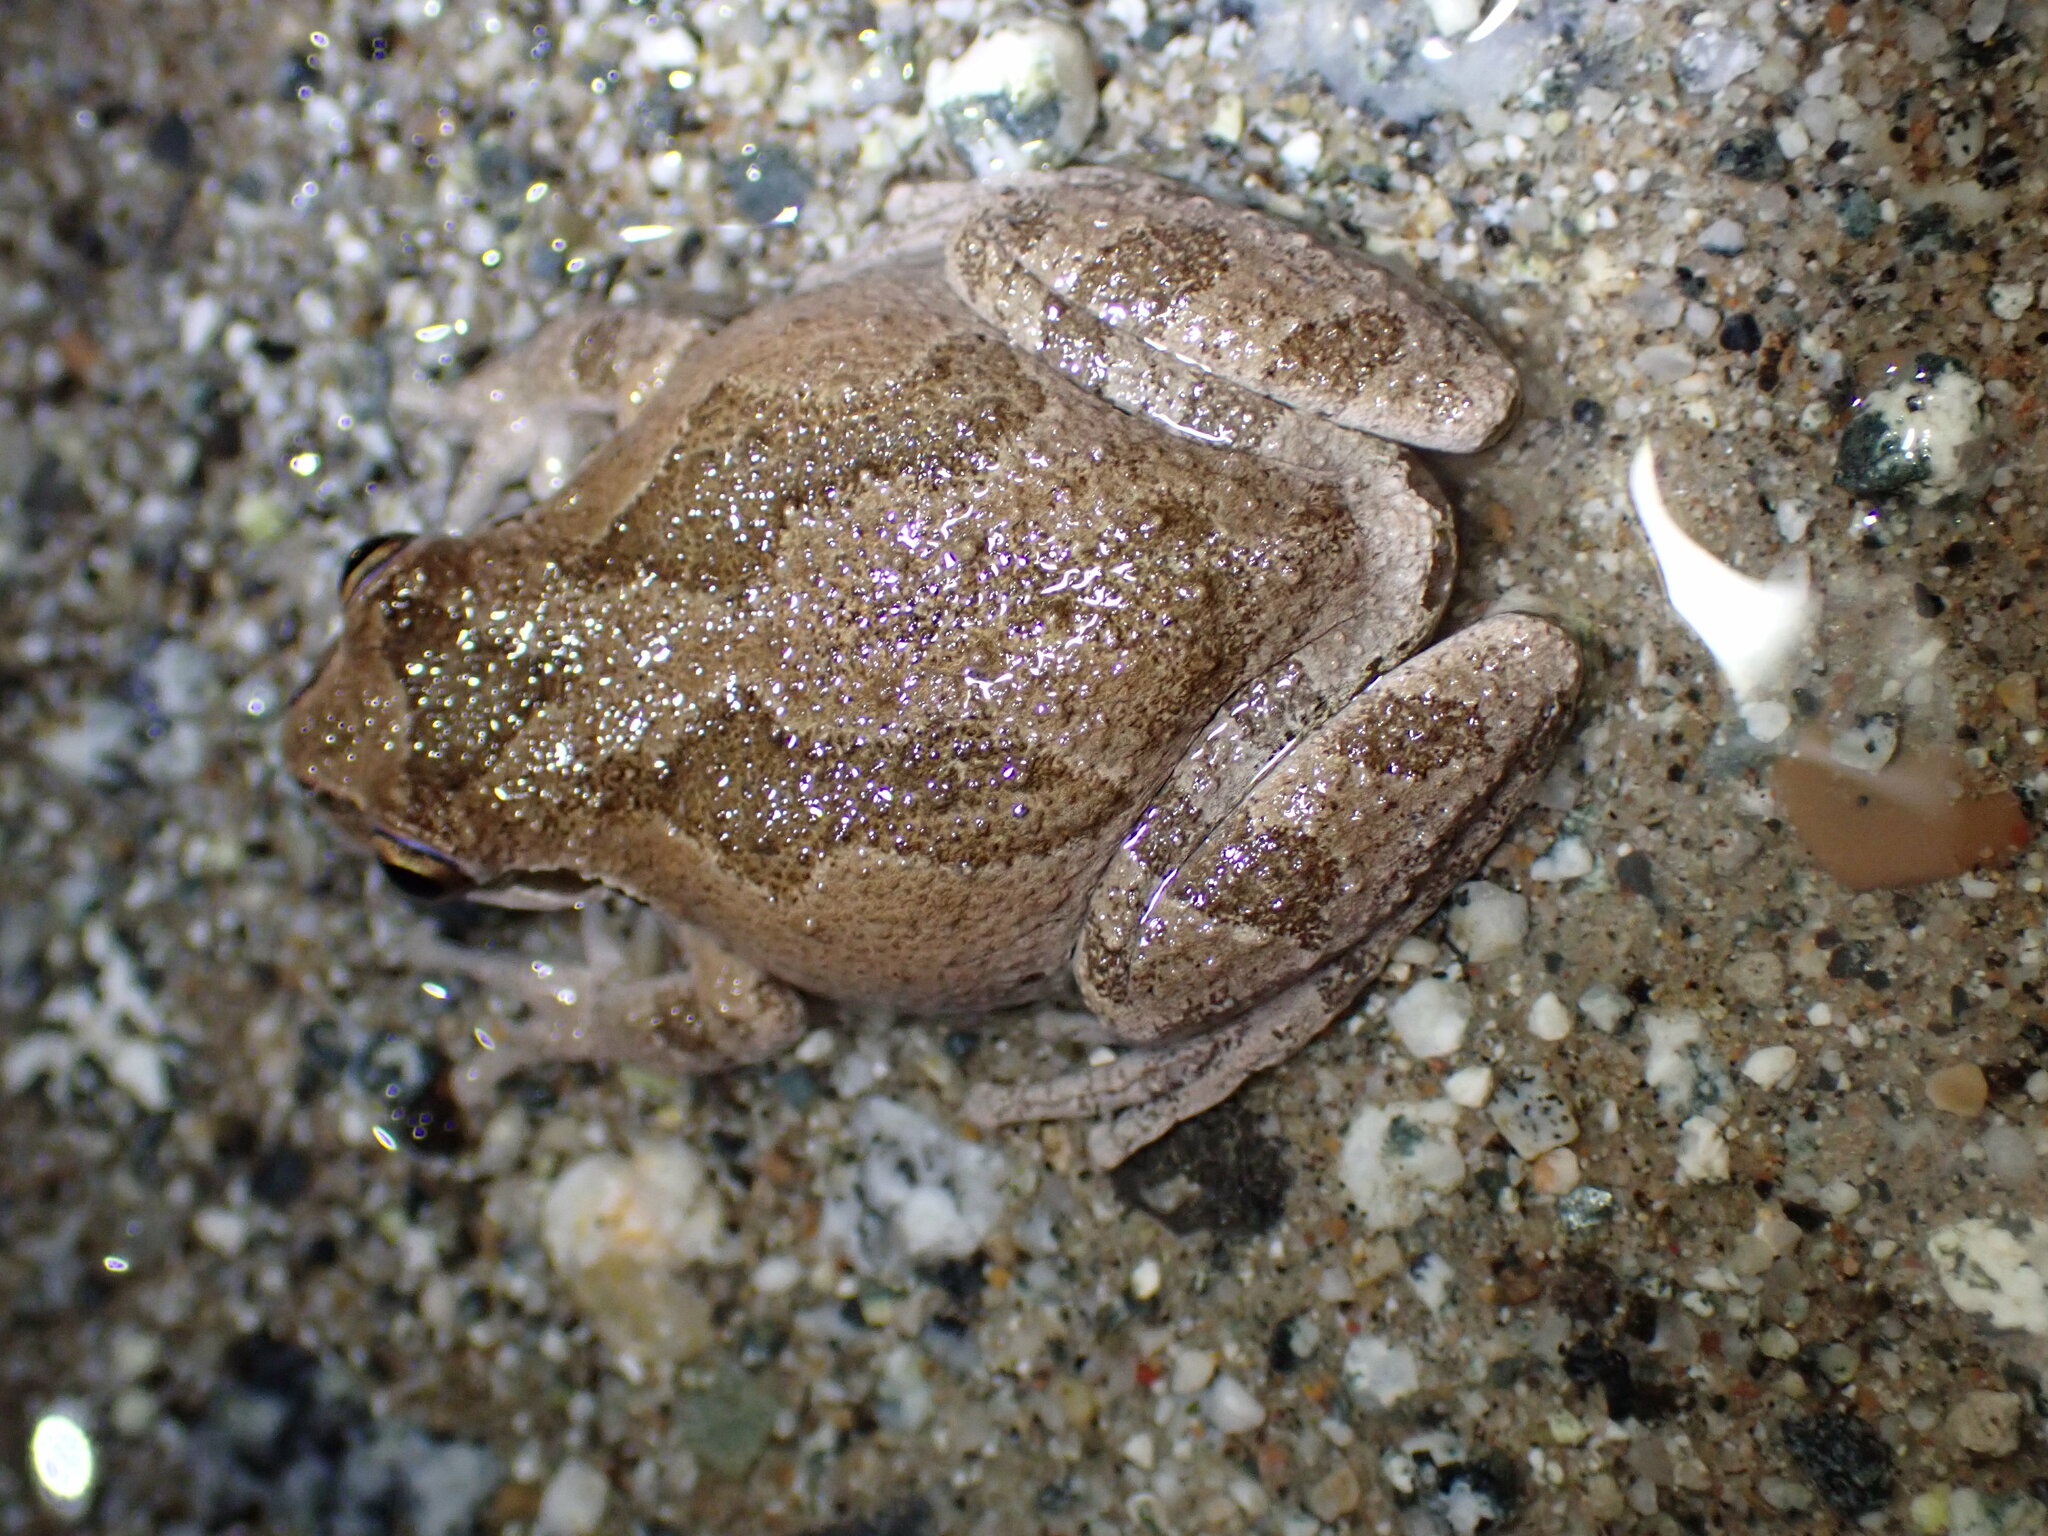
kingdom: Animalia
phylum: Chordata
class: Amphibia
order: Anura
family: Hylidae
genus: Pseudacris
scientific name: Pseudacris regilla
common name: Pacific chorus frog
